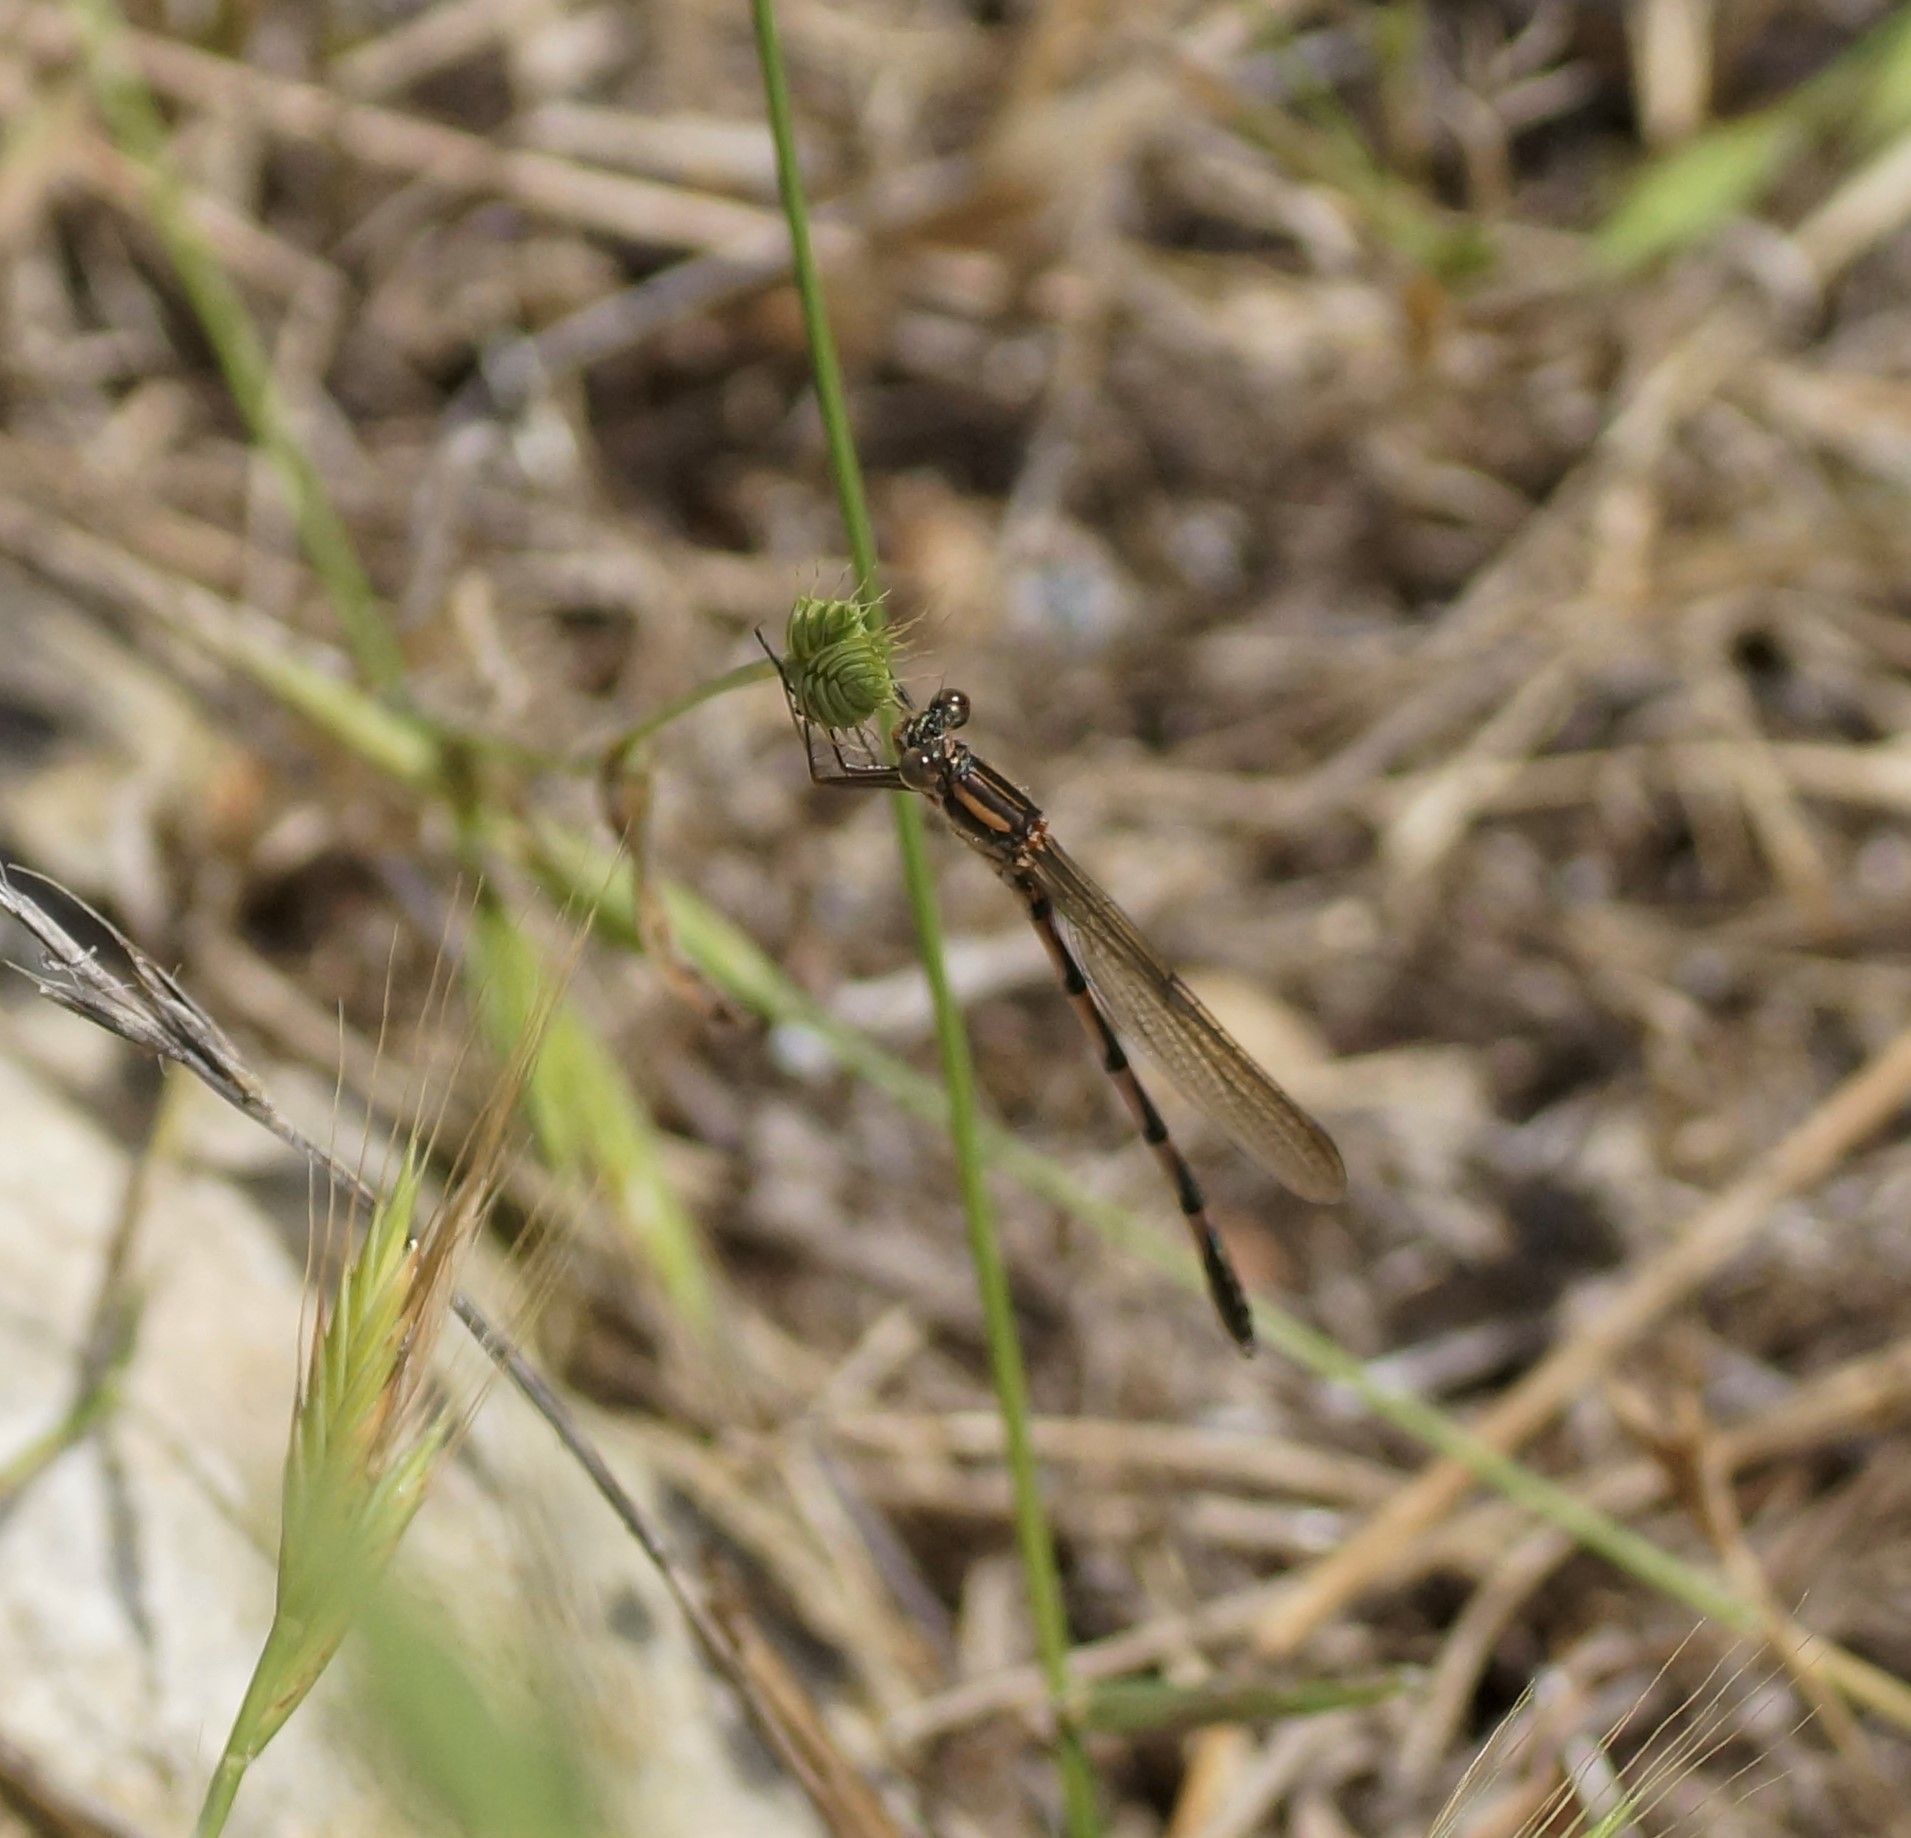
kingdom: Animalia
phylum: Arthropoda
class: Insecta
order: Odonata
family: Lestidae
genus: Austrolestes
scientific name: Austrolestes annulosus
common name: Blue ringtail
